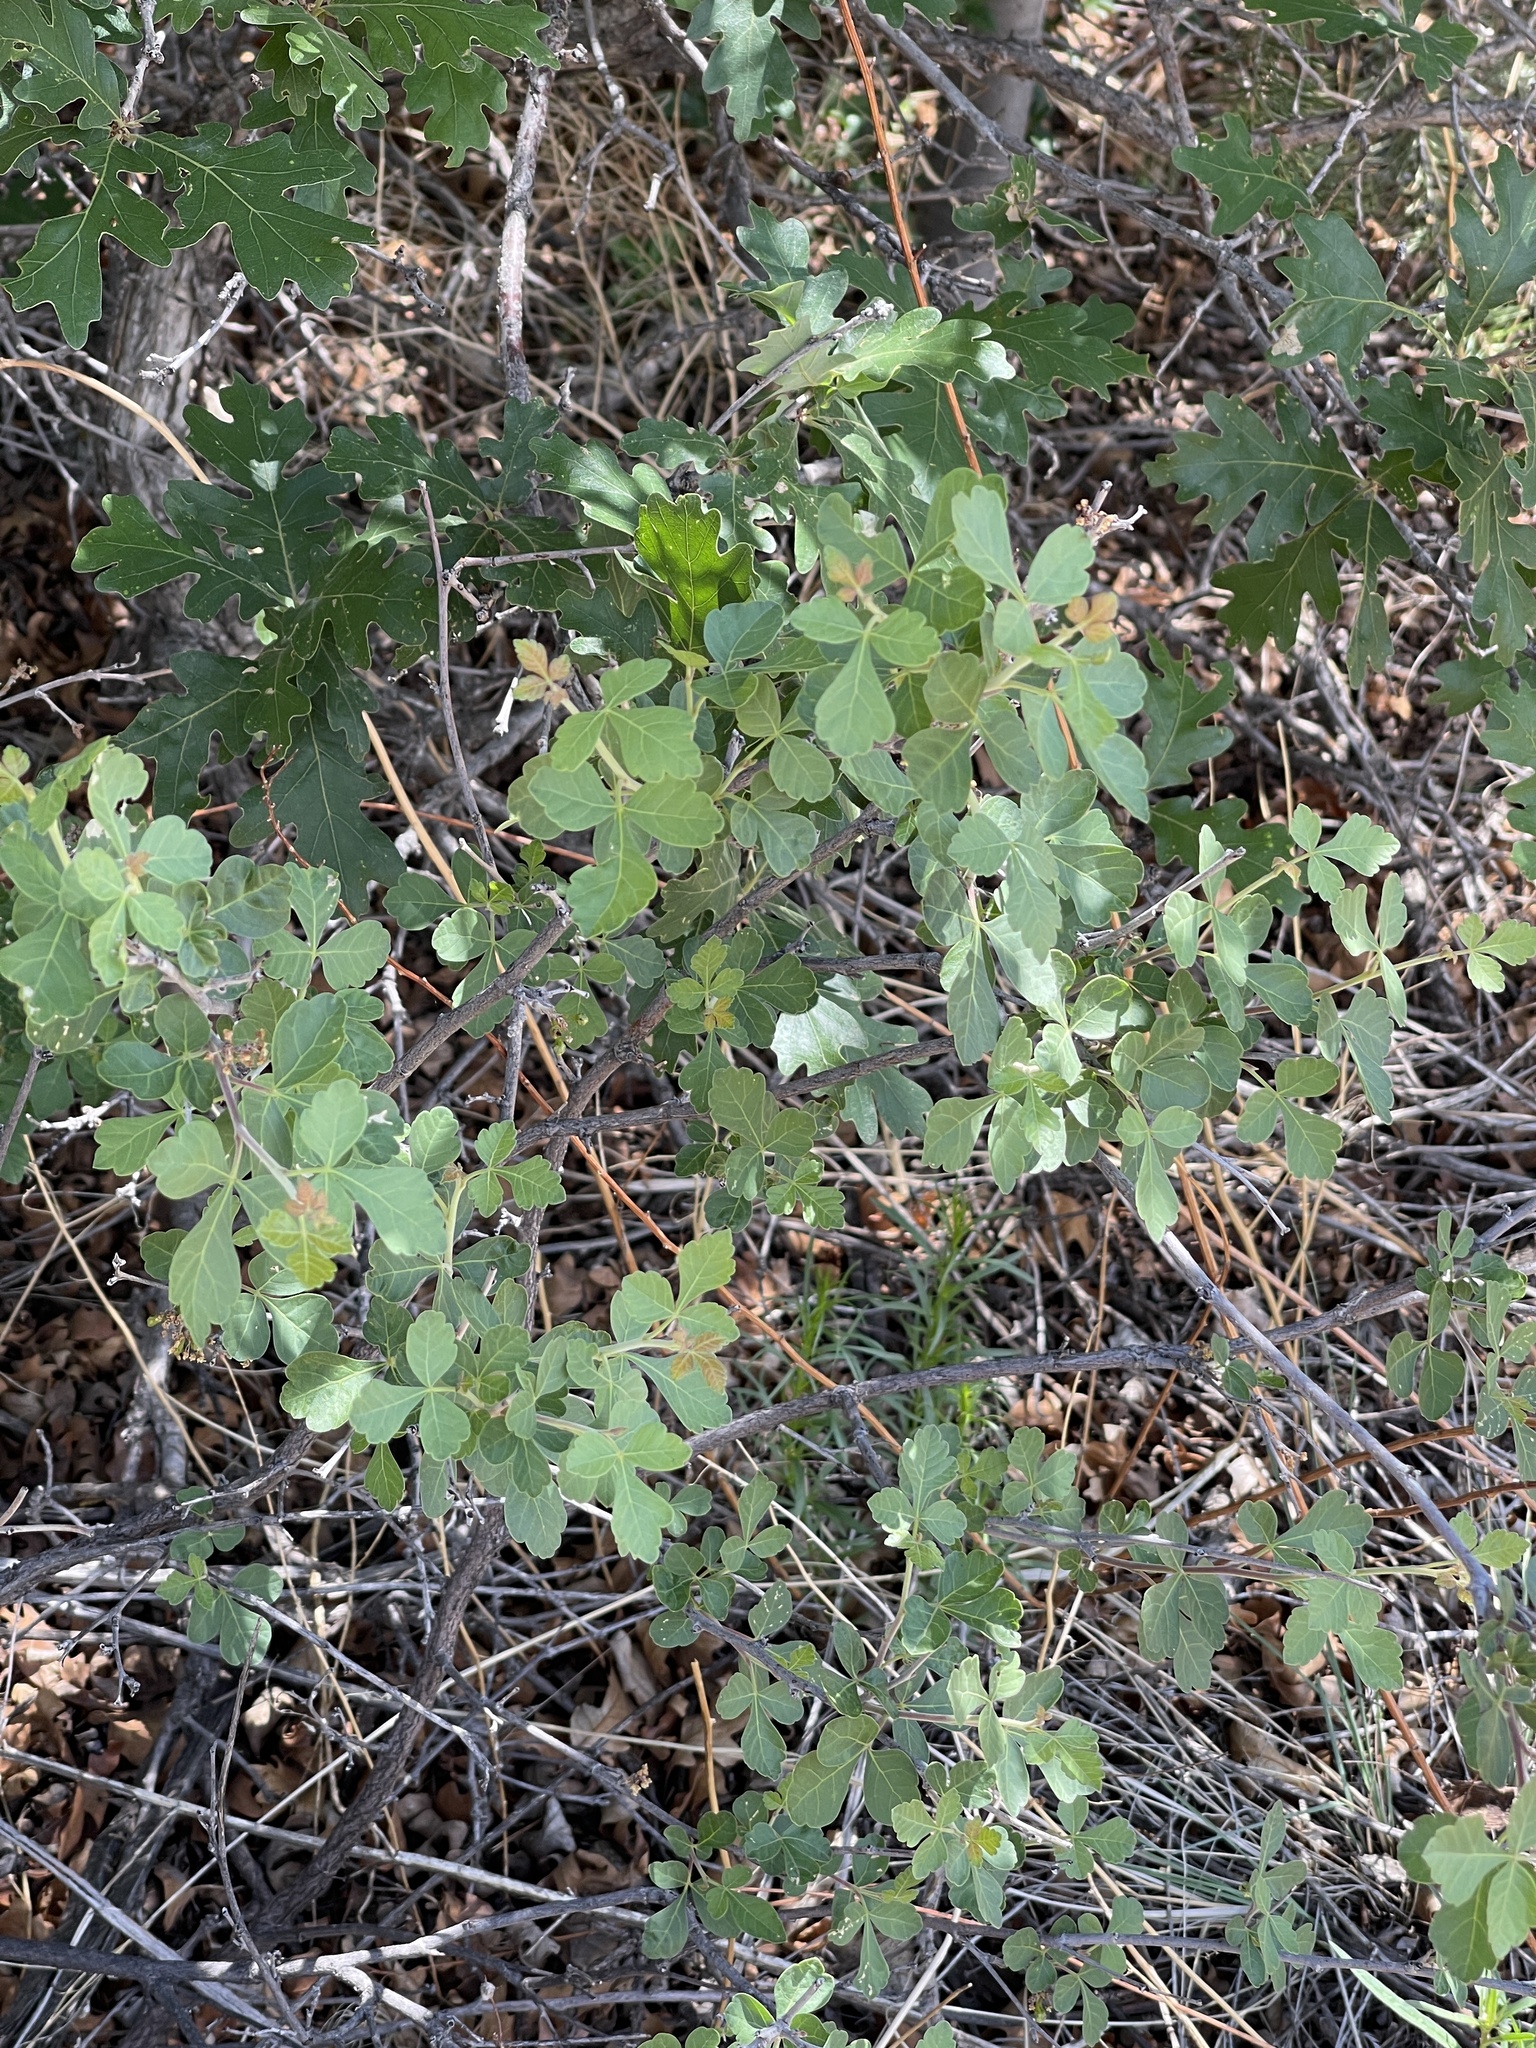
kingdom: Plantae
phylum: Tracheophyta
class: Magnoliopsida
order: Sapindales
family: Anacardiaceae
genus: Rhus
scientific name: Rhus trilobata
